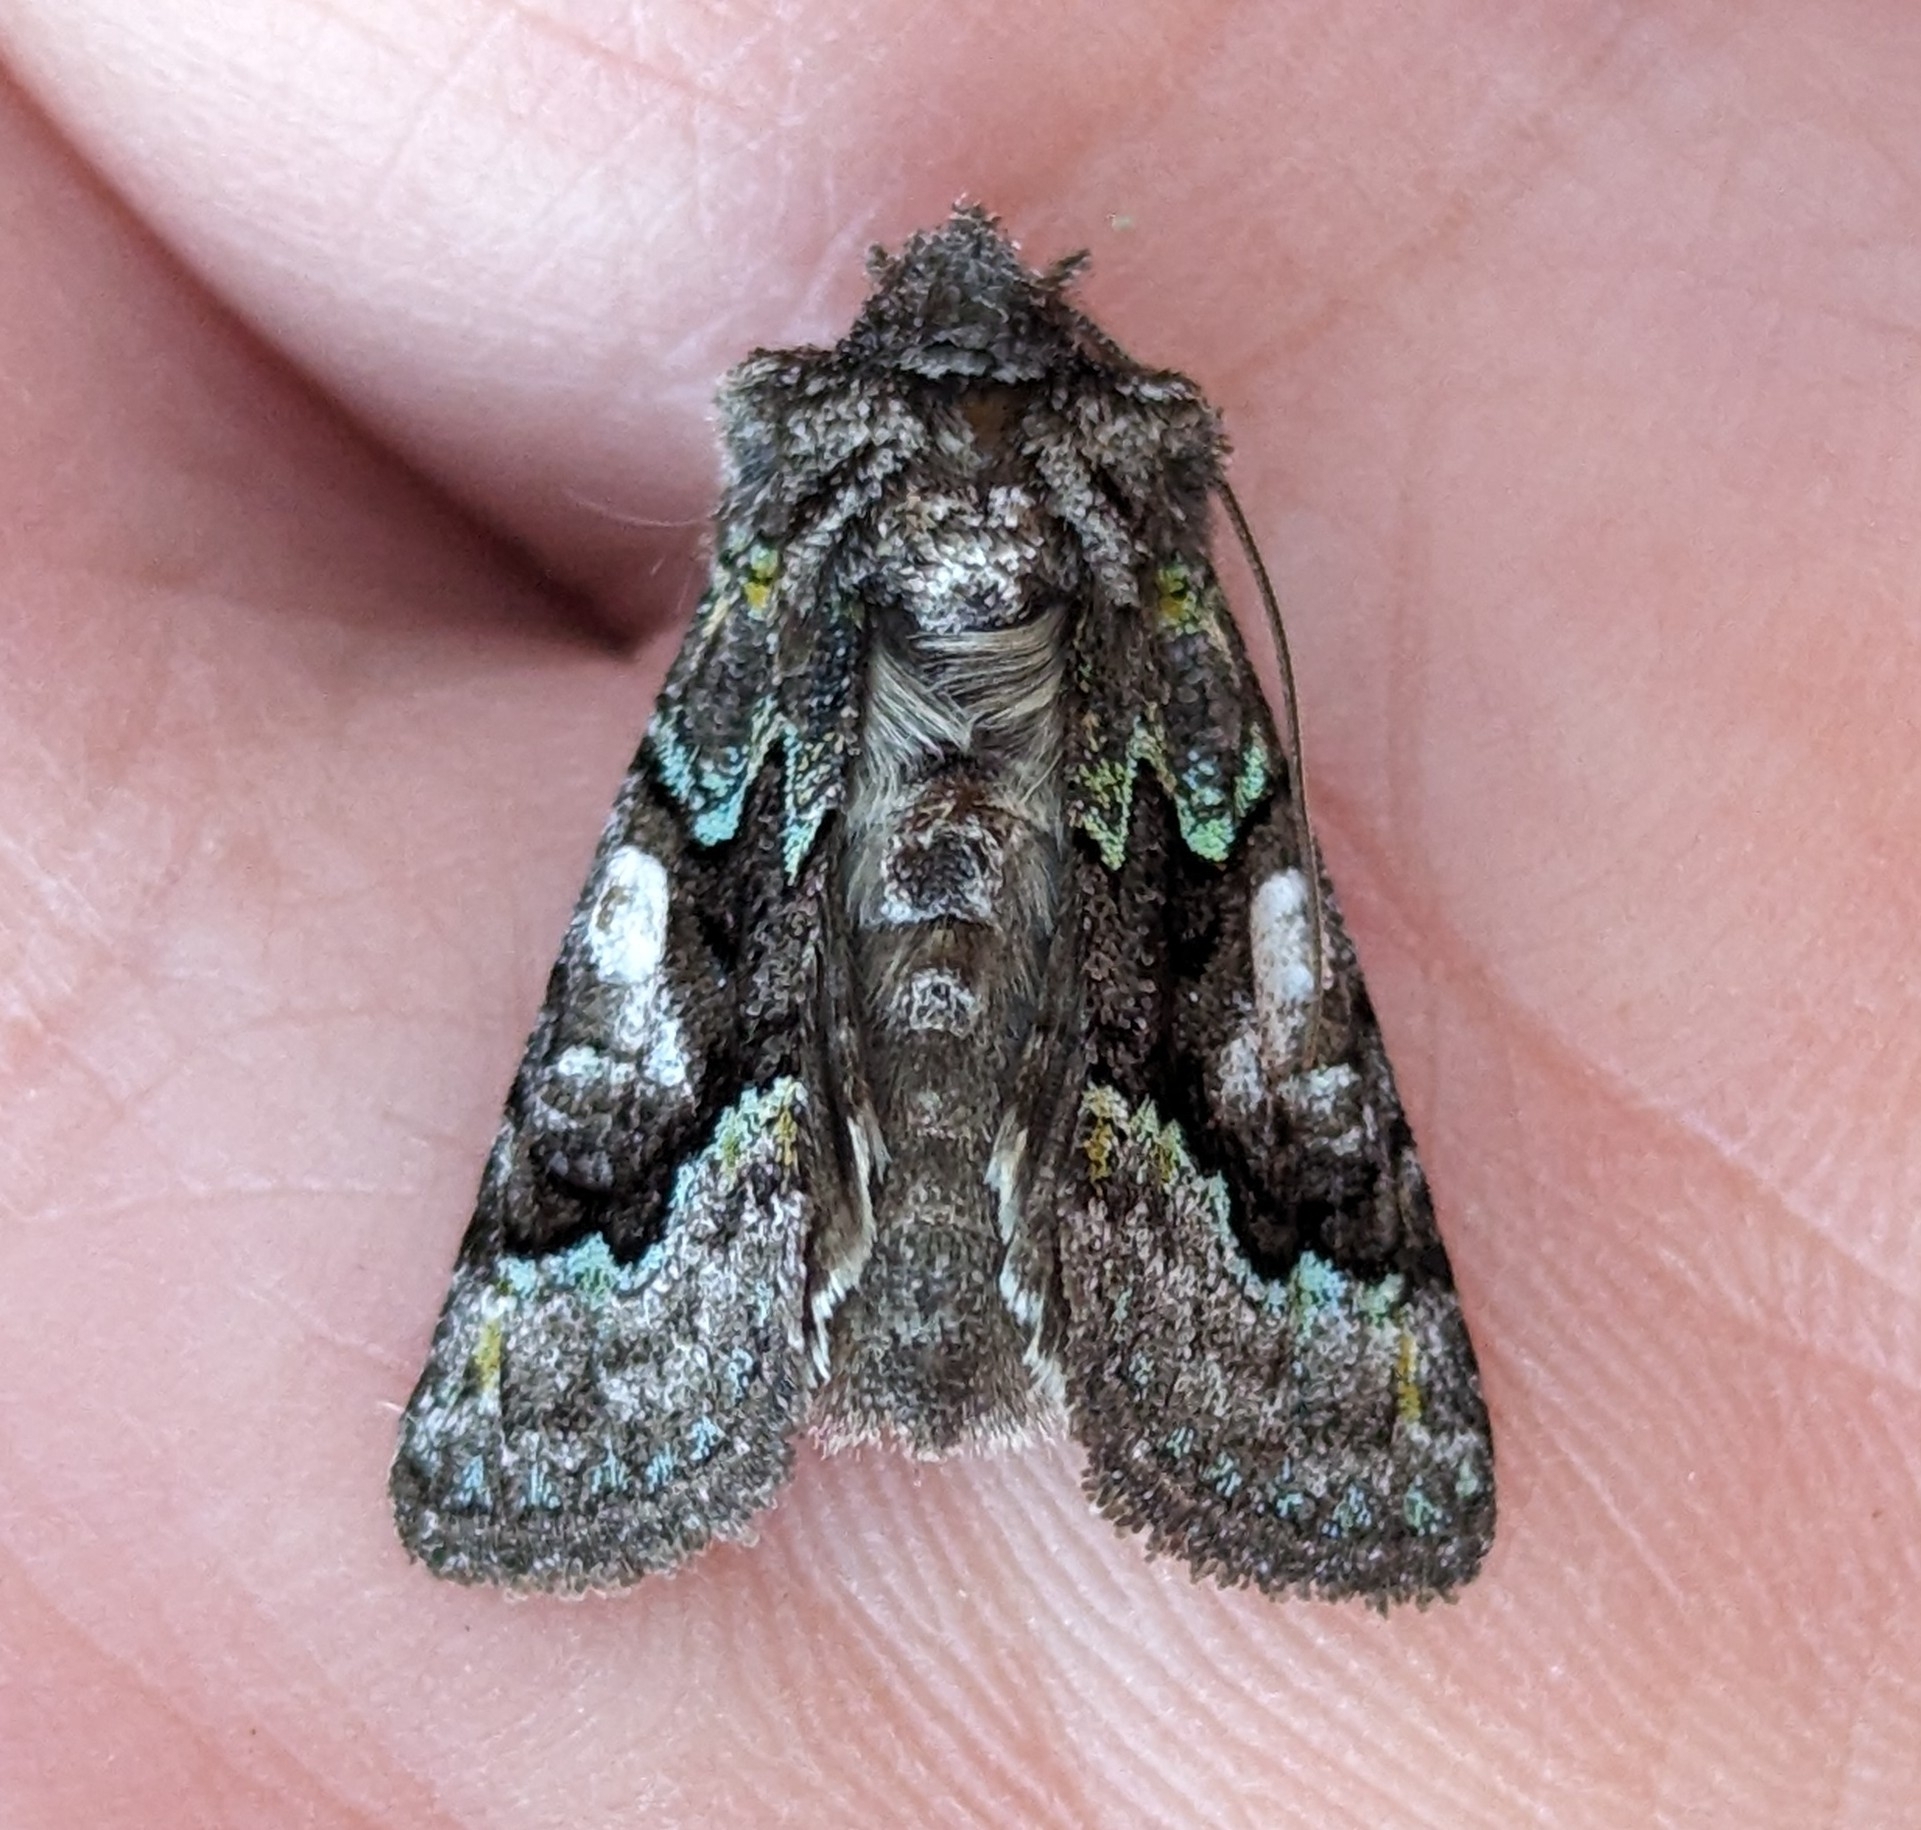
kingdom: Animalia
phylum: Arthropoda
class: Insecta
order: Lepidoptera
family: Noctuidae
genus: Behrensia
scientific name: Behrensia conchiformis
